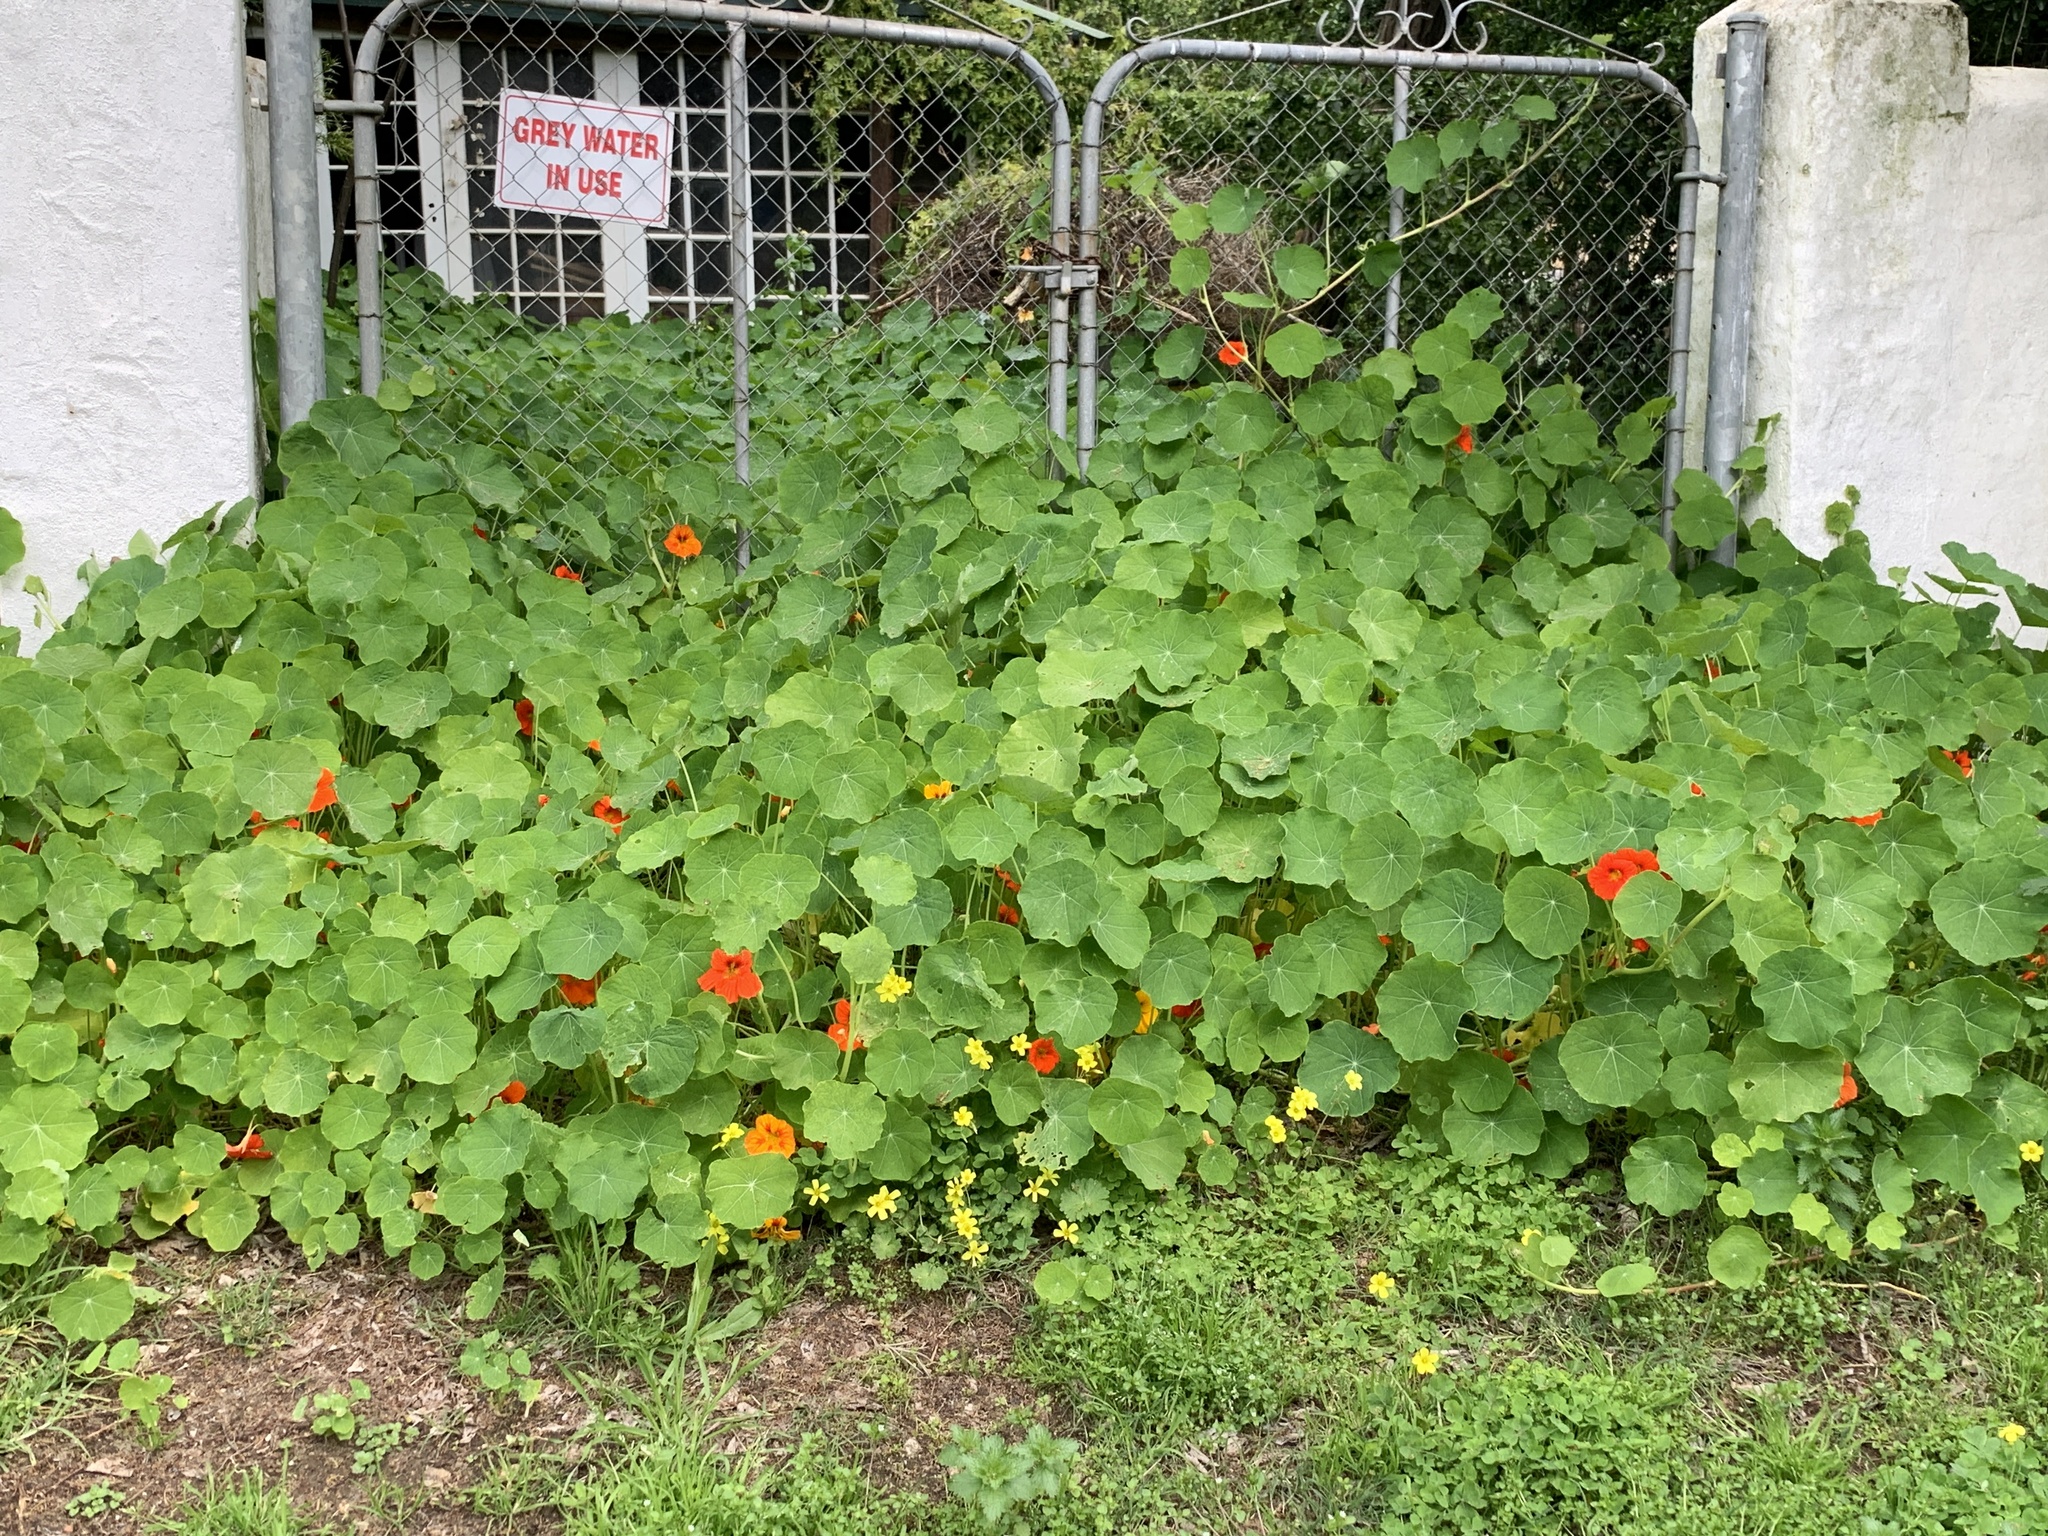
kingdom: Plantae
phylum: Tracheophyta
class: Magnoliopsida
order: Brassicales
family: Tropaeolaceae
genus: Tropaeolum
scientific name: Tropaeolum majus
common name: Nasturtium
